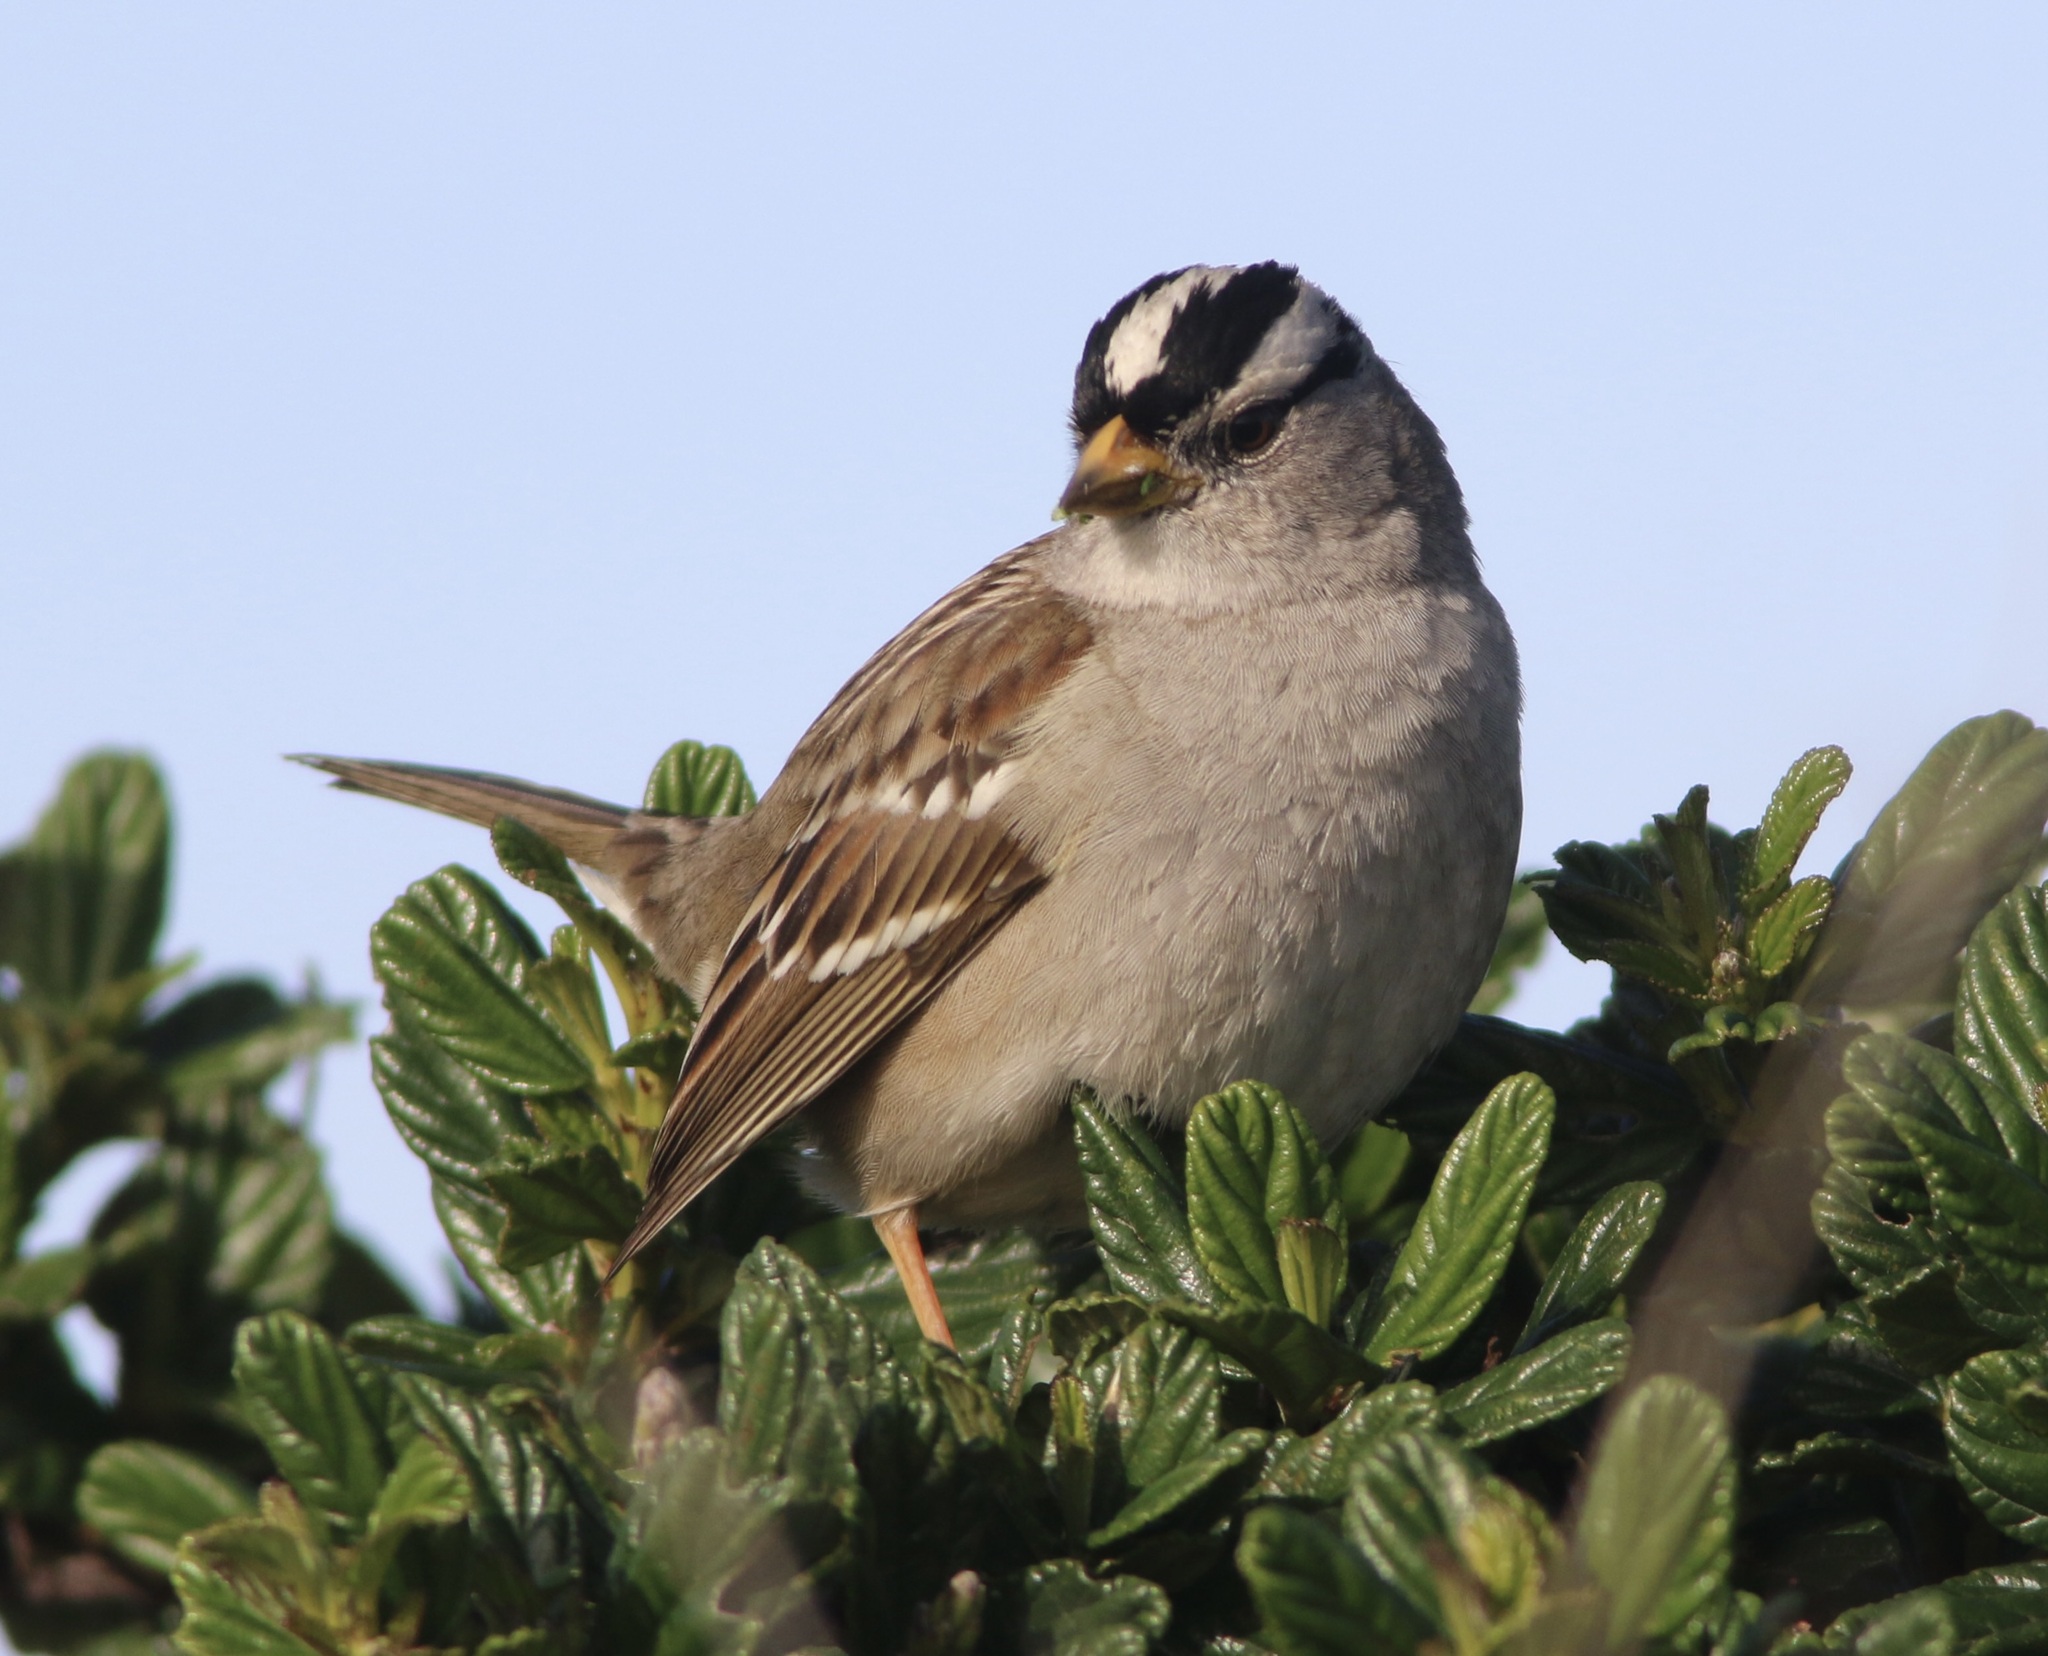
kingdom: Animalia
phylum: Chordata
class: Aves
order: Passeriformes
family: Passerellidae
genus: Zonotrichia
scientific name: Zonotrichia leucophrys
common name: White-crowned sparrow
